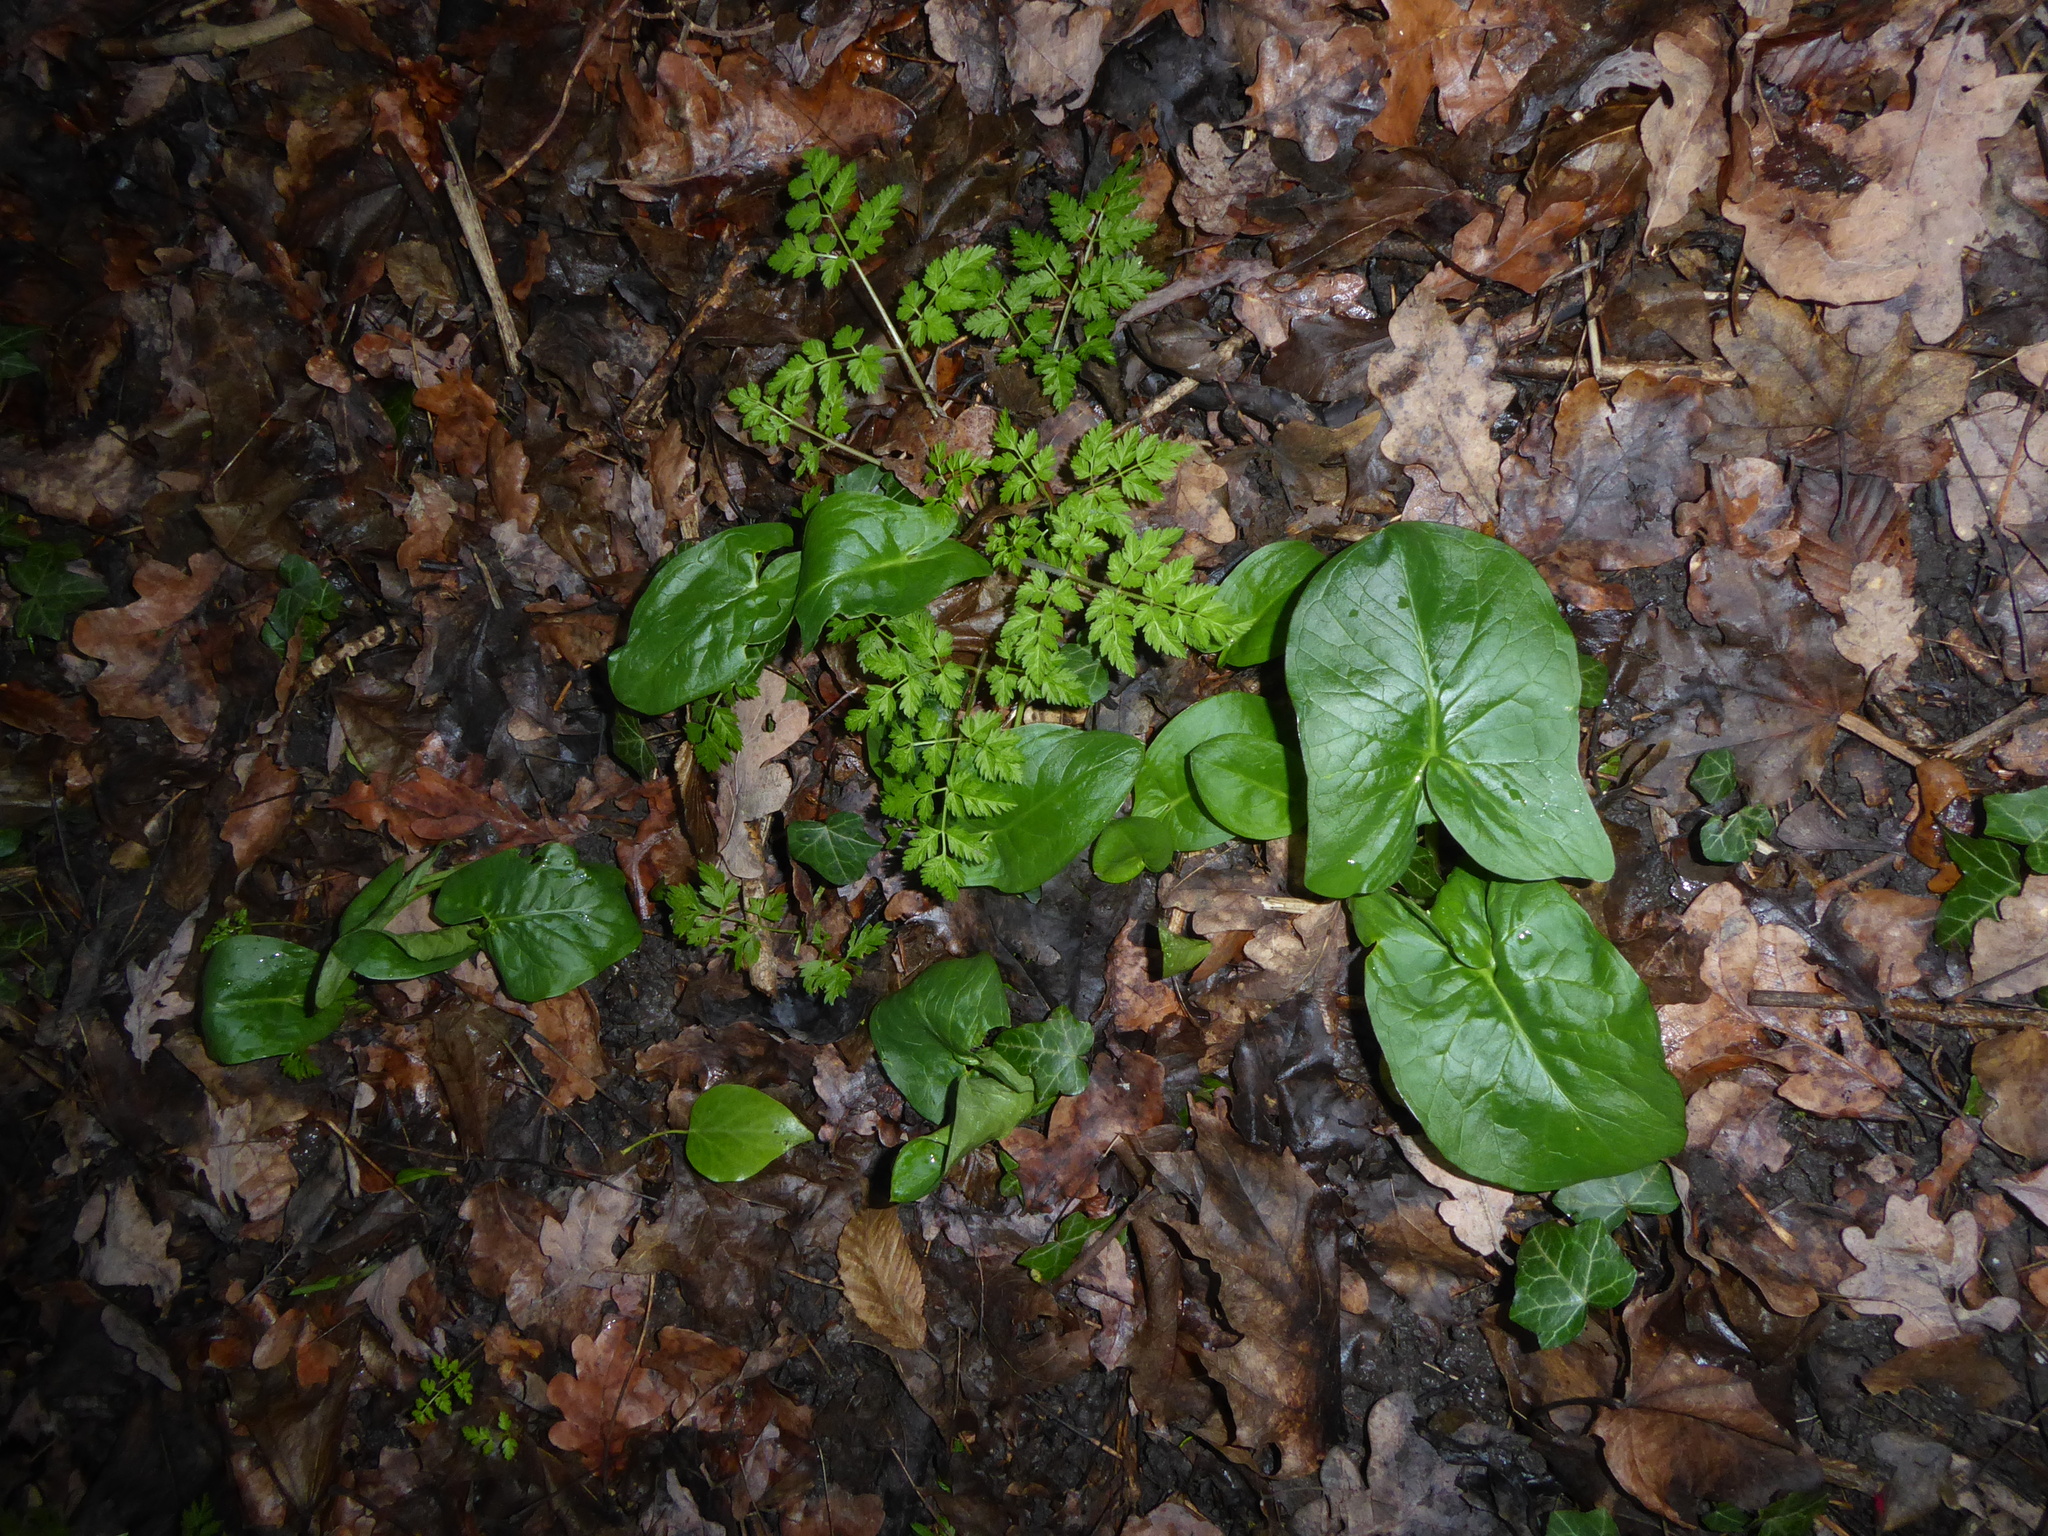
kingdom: Plantae
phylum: Tracheophyta
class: Liliopsida
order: Alismatales
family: Araceae
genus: Arum
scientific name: Arum maculatum
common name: Lords-and-ladies
